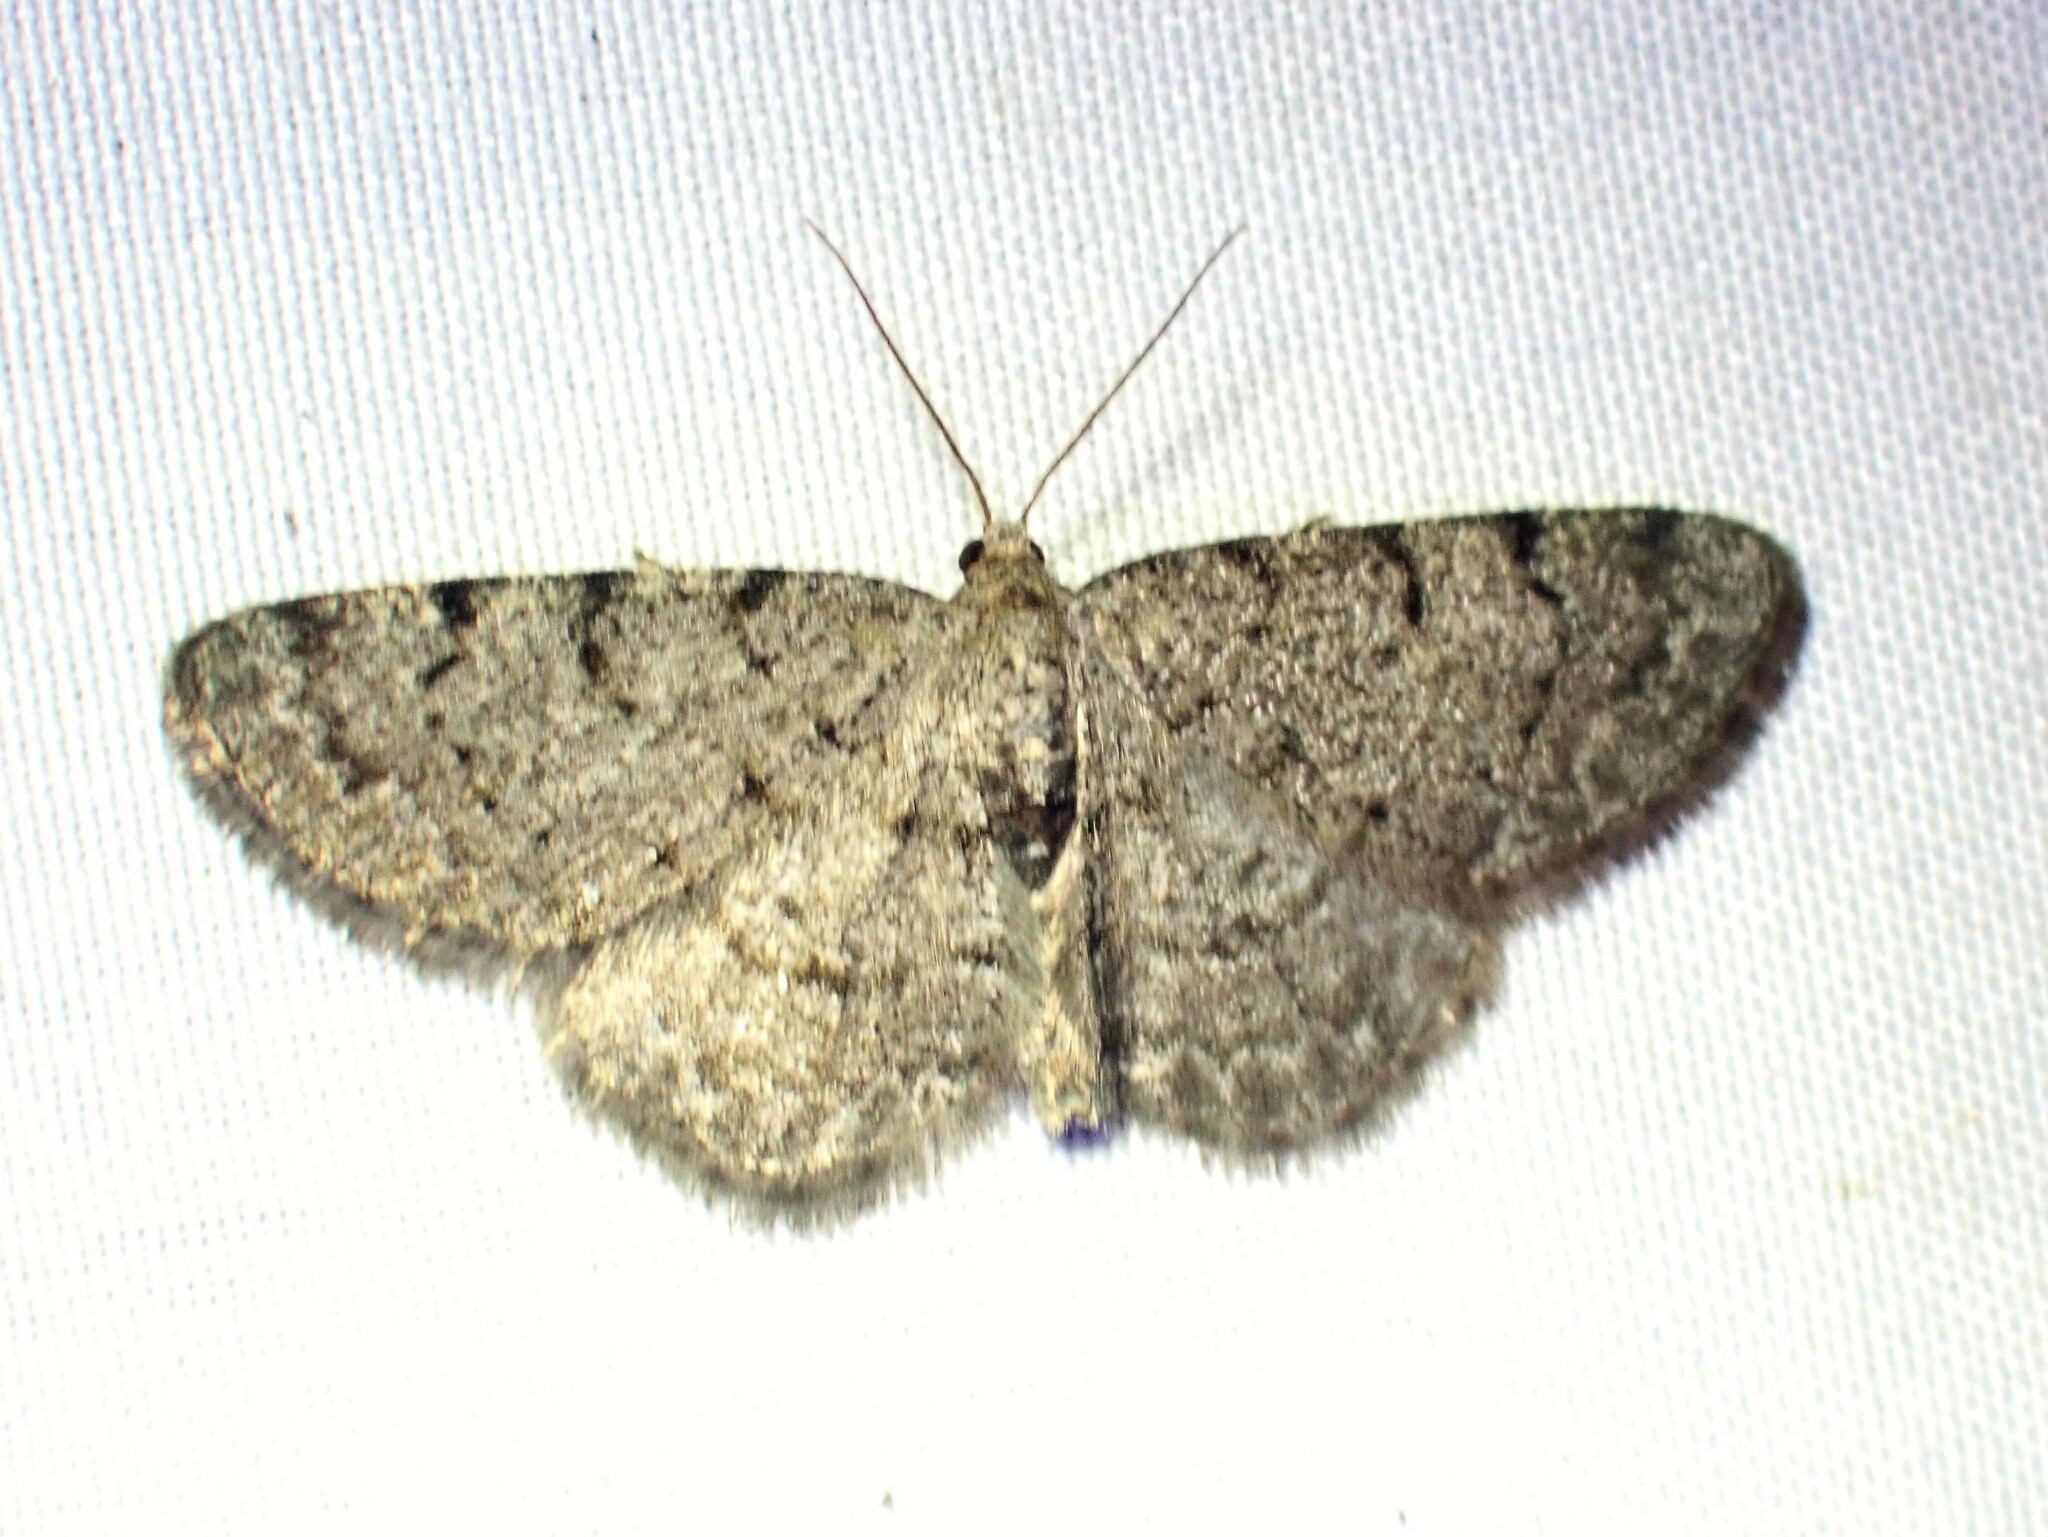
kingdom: Animalia
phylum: Arthropoda
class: Insecta
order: Lepidoptera
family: Geometridae
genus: Aethalura
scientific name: Aethalura intertexta
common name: Four-barred gray
